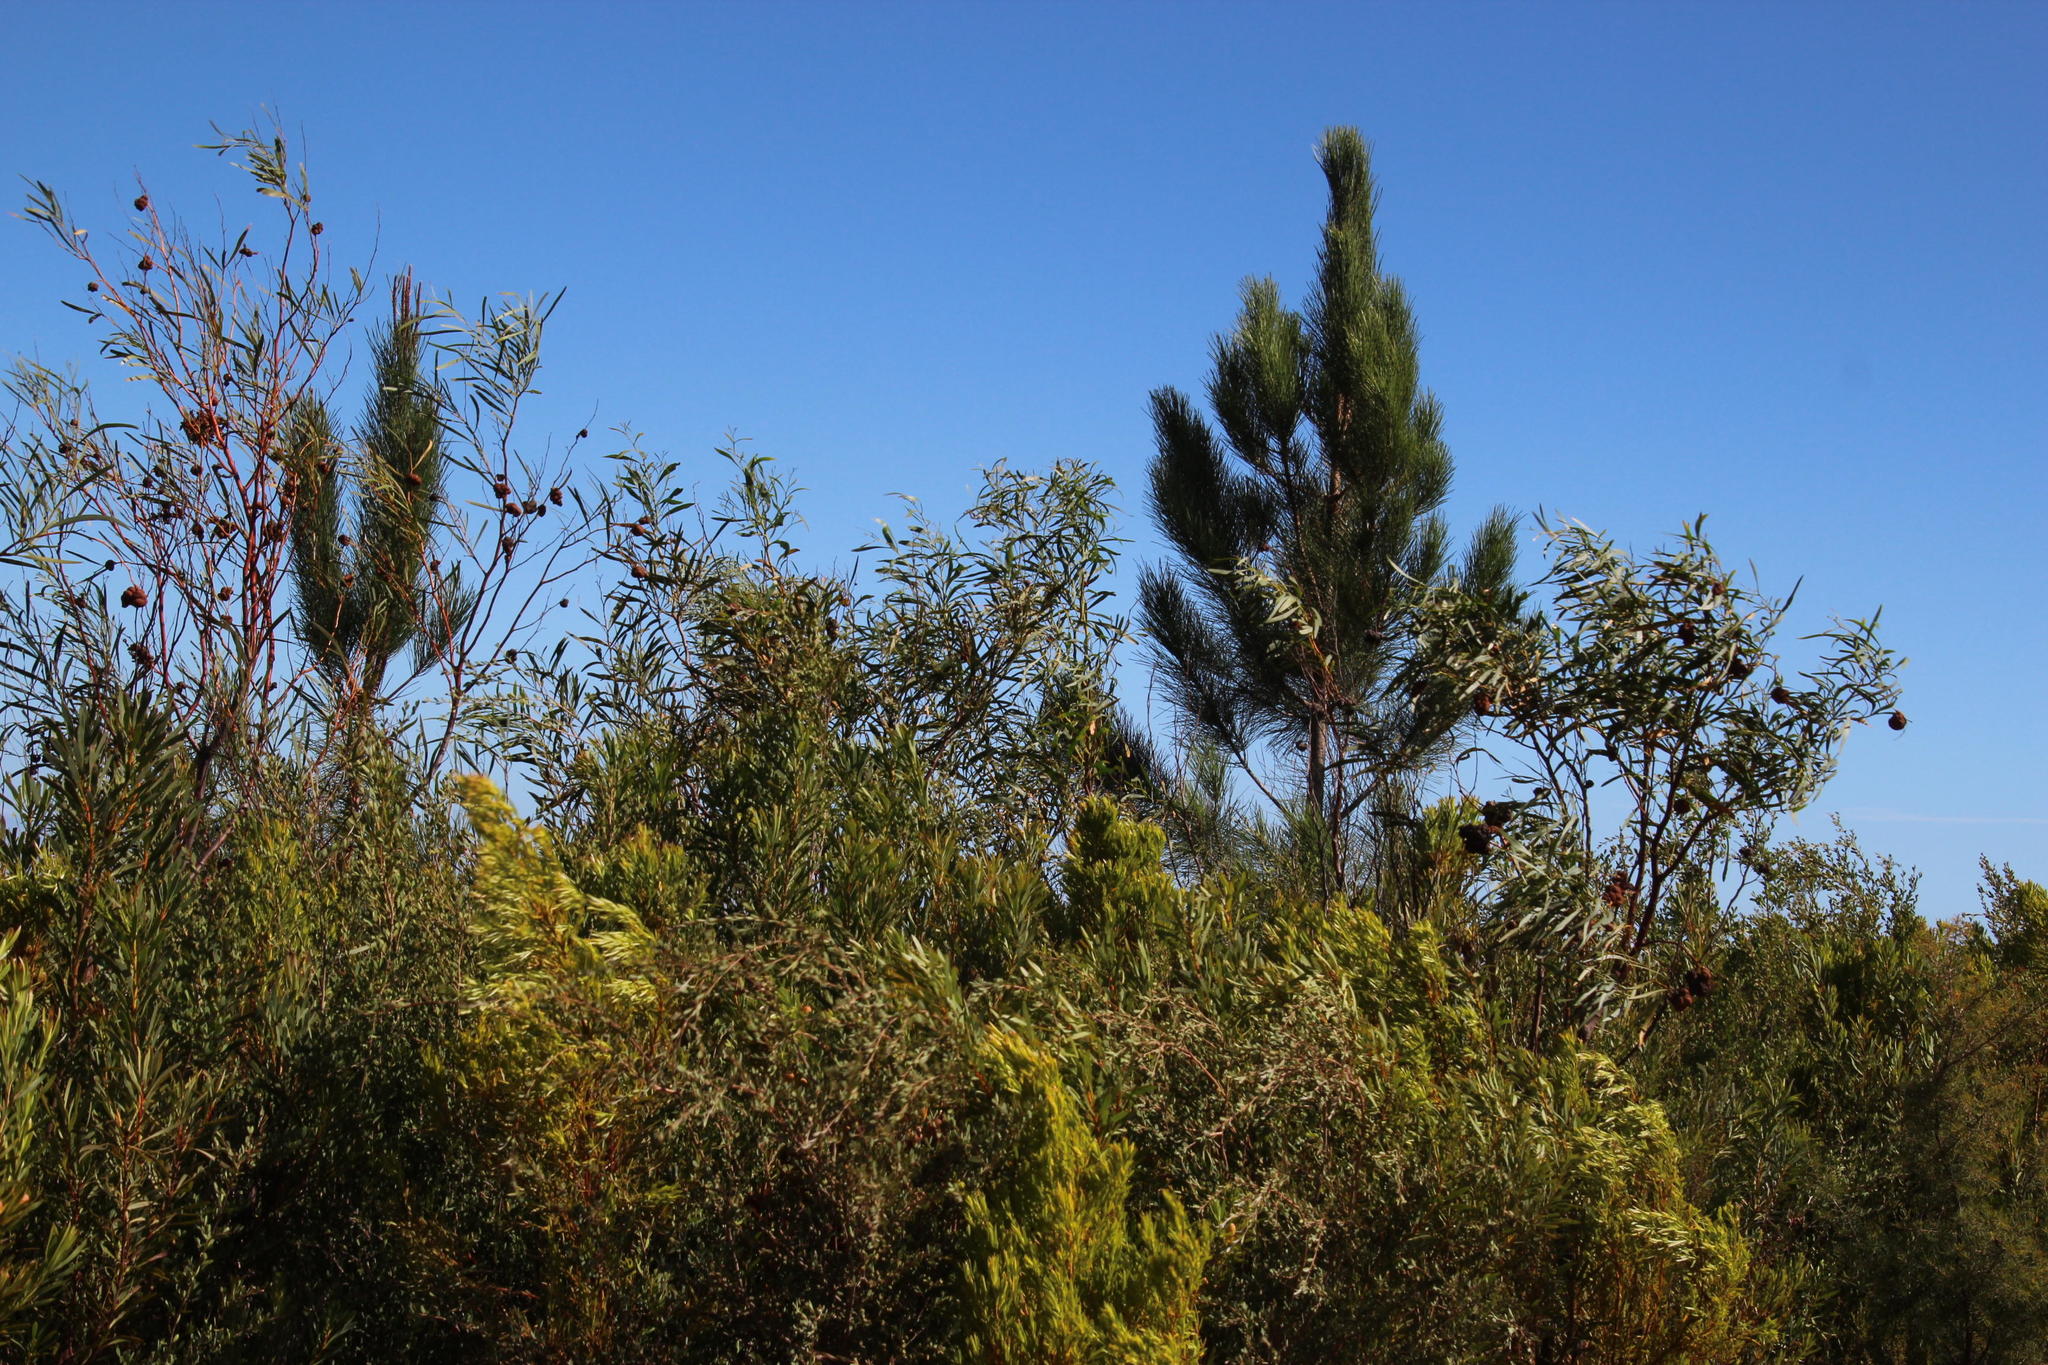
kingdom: Plantae
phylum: Tracheophyta
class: Pinopsida
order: Pinales
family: Pinaceae
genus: Pinus
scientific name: Pinus pinaster
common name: Maritime pine
